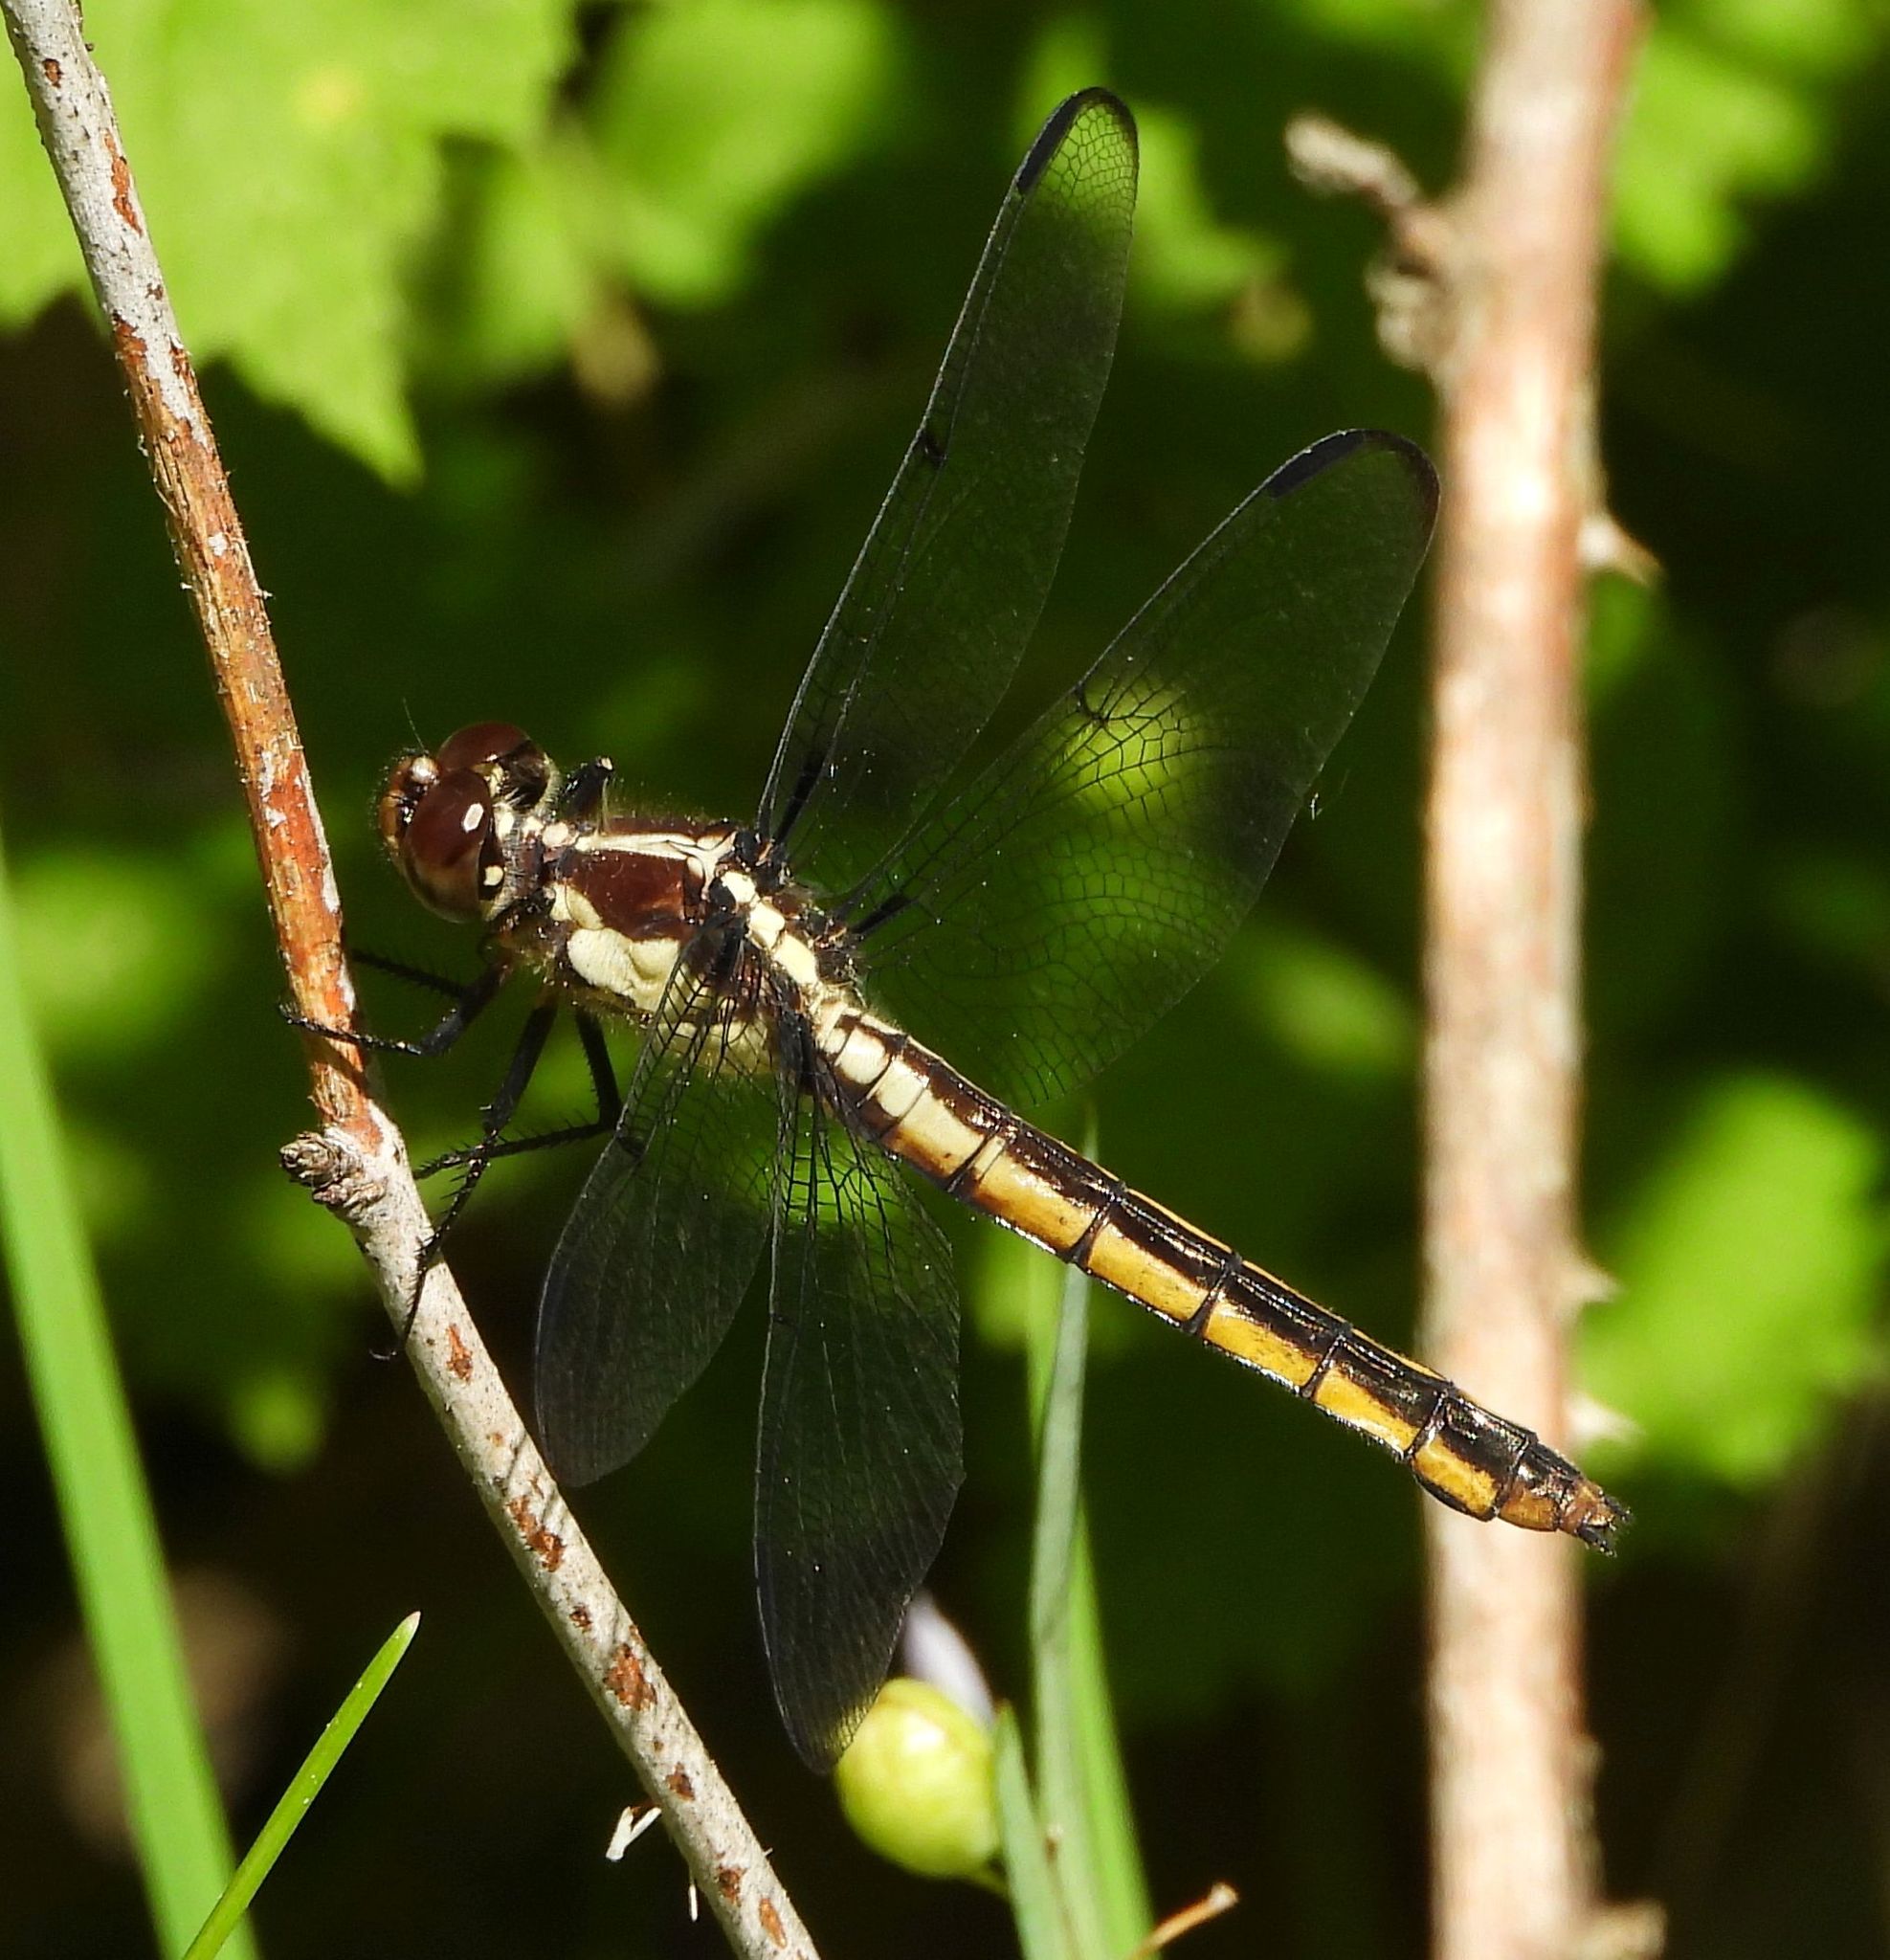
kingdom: Animalia
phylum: Arthropoda
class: Insecta
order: Odonata
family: Libellulidae
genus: Libellula
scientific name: Libellula incesta
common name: Slaty skimmer
